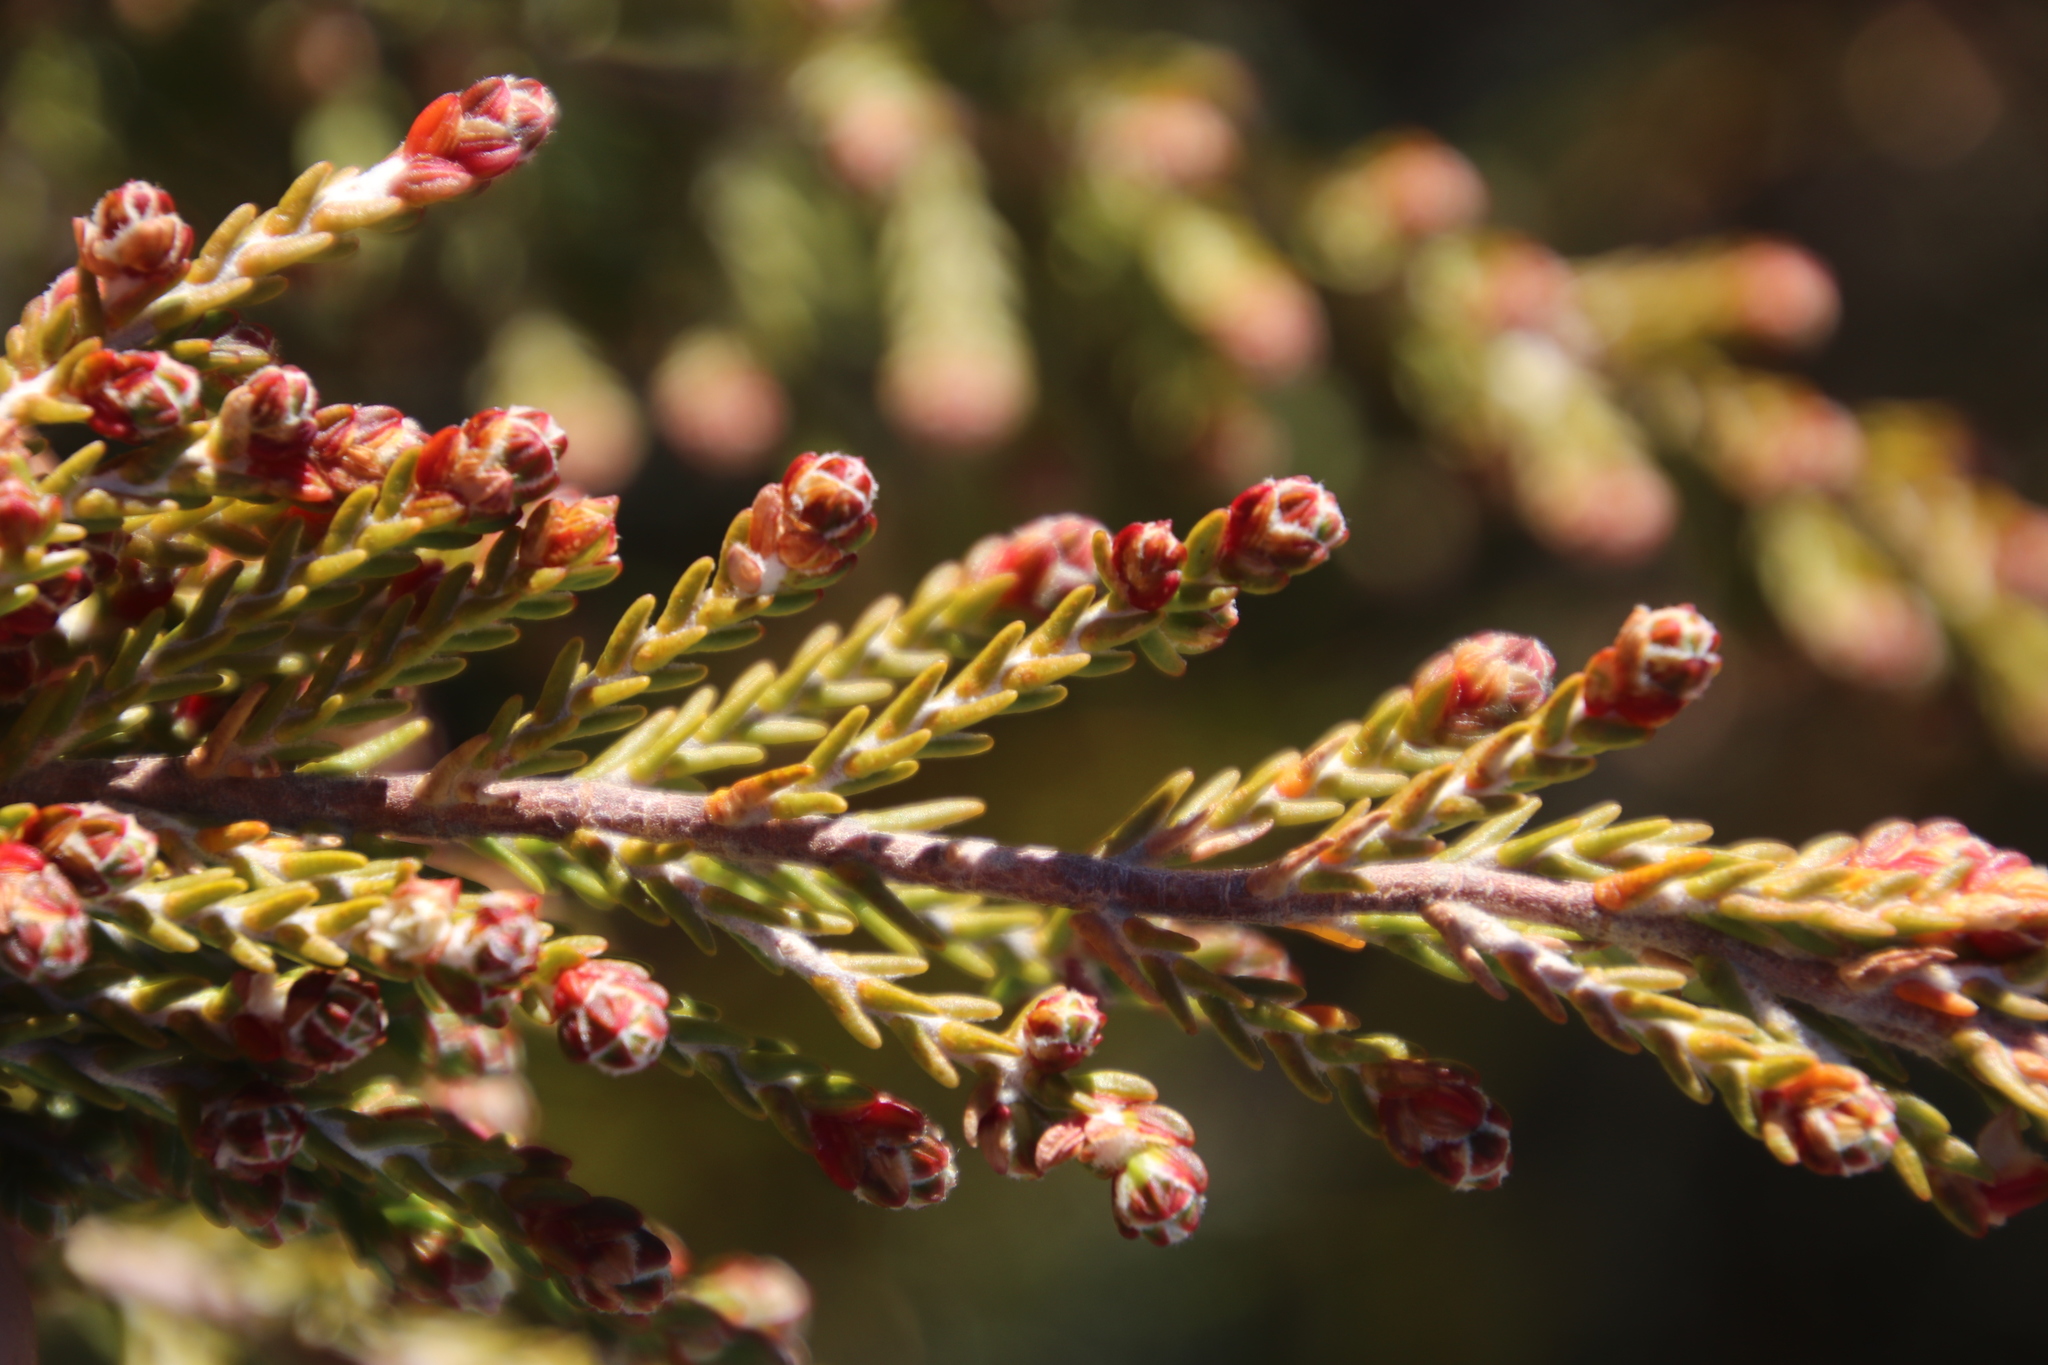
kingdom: Plantae
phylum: Tracheophyta
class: Magnoliopsida
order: Malvales
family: Thymelaeaceae
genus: Passerina
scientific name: Passerina nivicola
